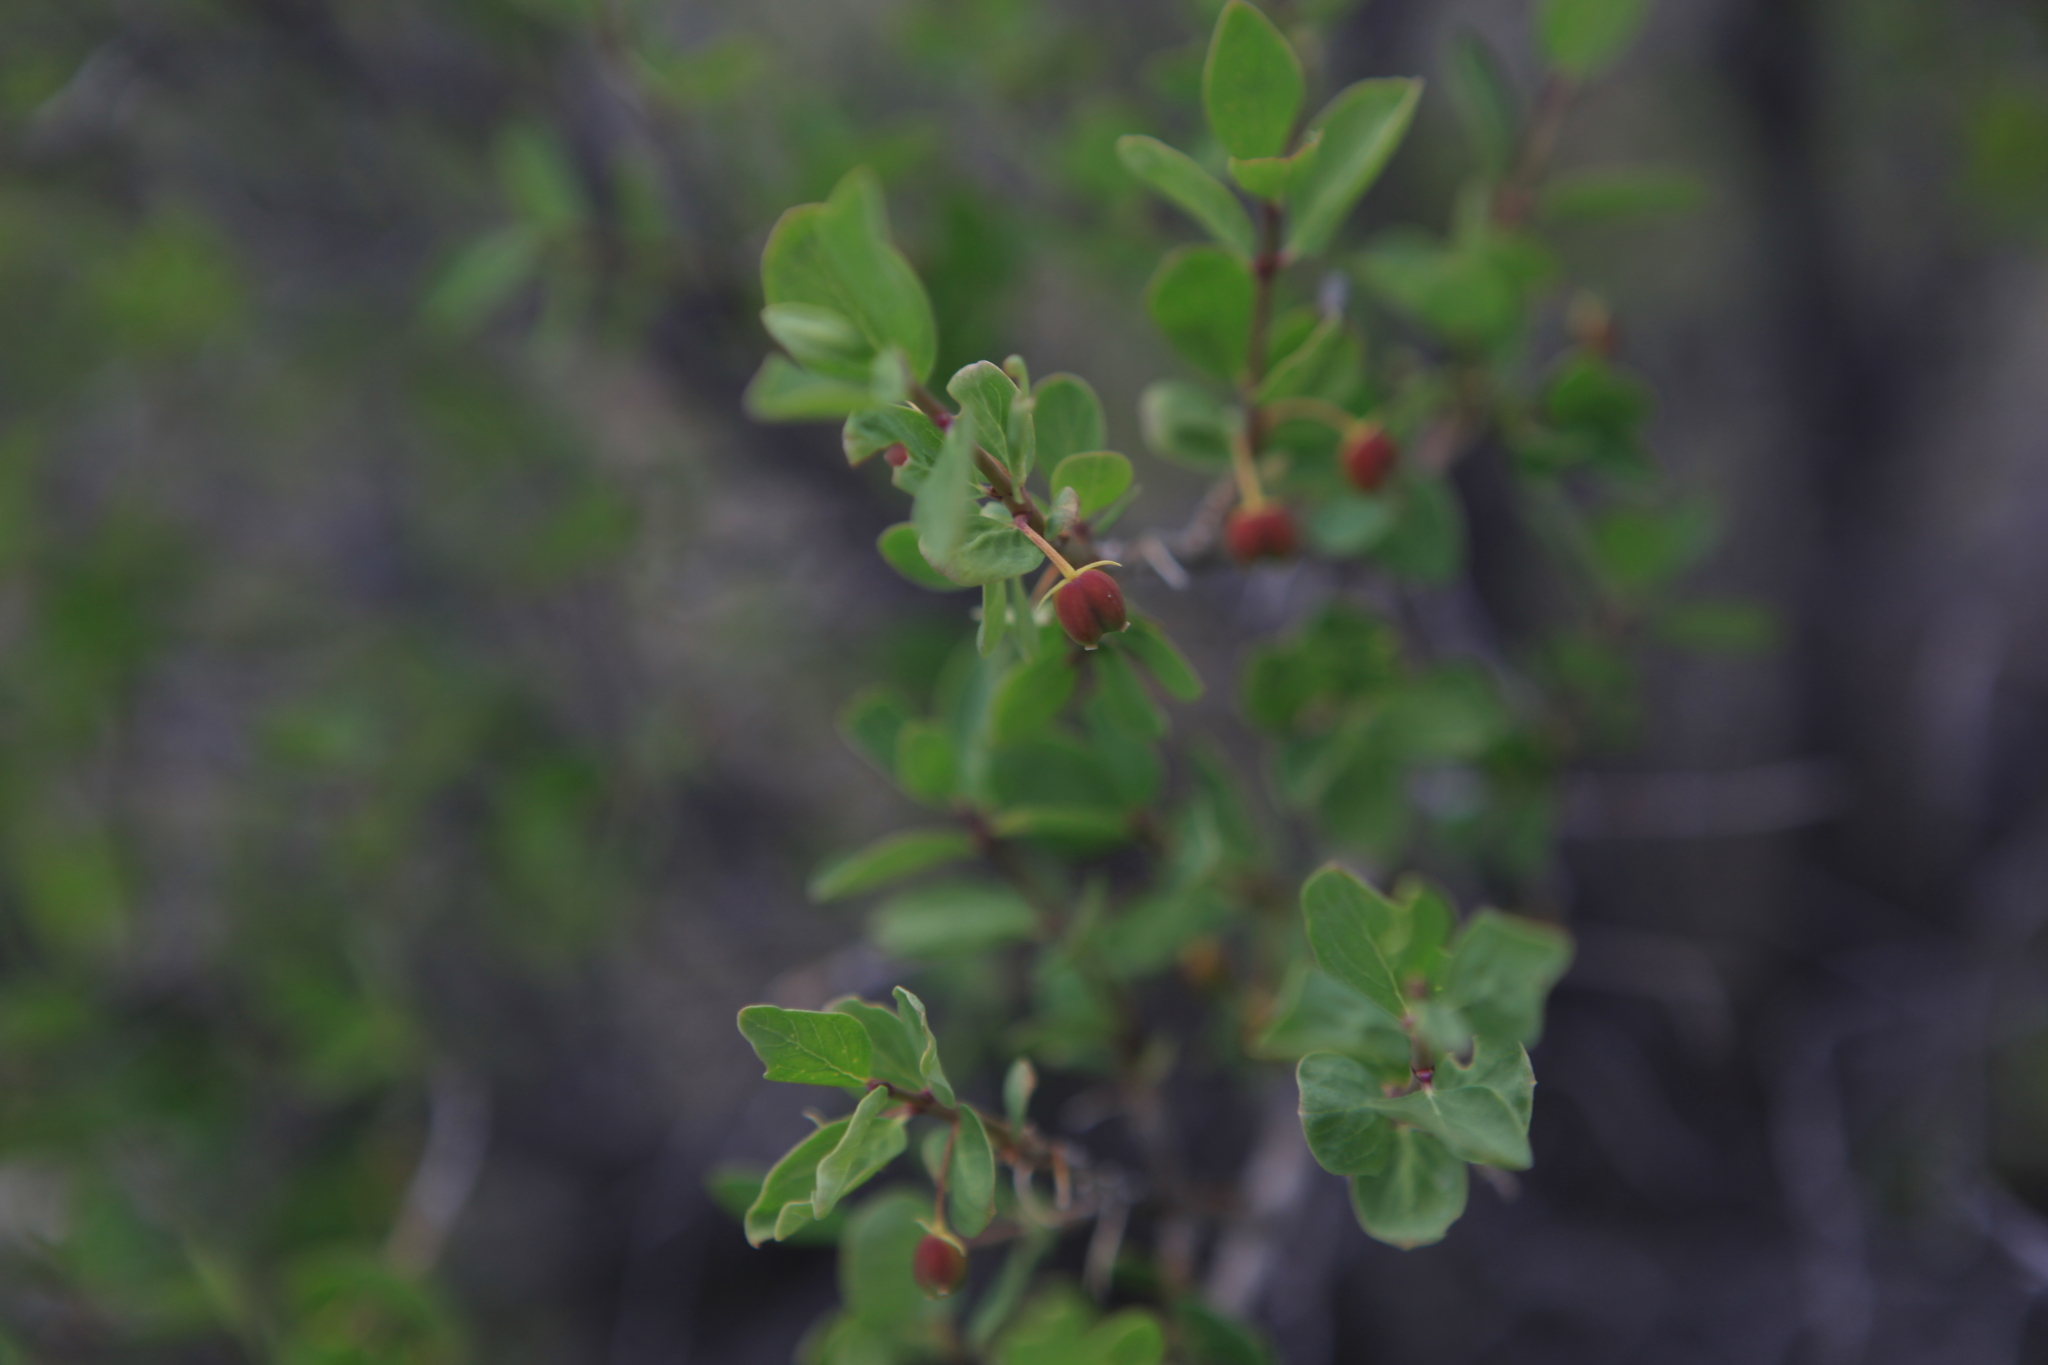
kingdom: Plantae
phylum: Tracheophyta
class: Magnoliopsida
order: Dipsacales
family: Caprifoliaceae
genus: Lonicera
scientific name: Lonicera microphylla
